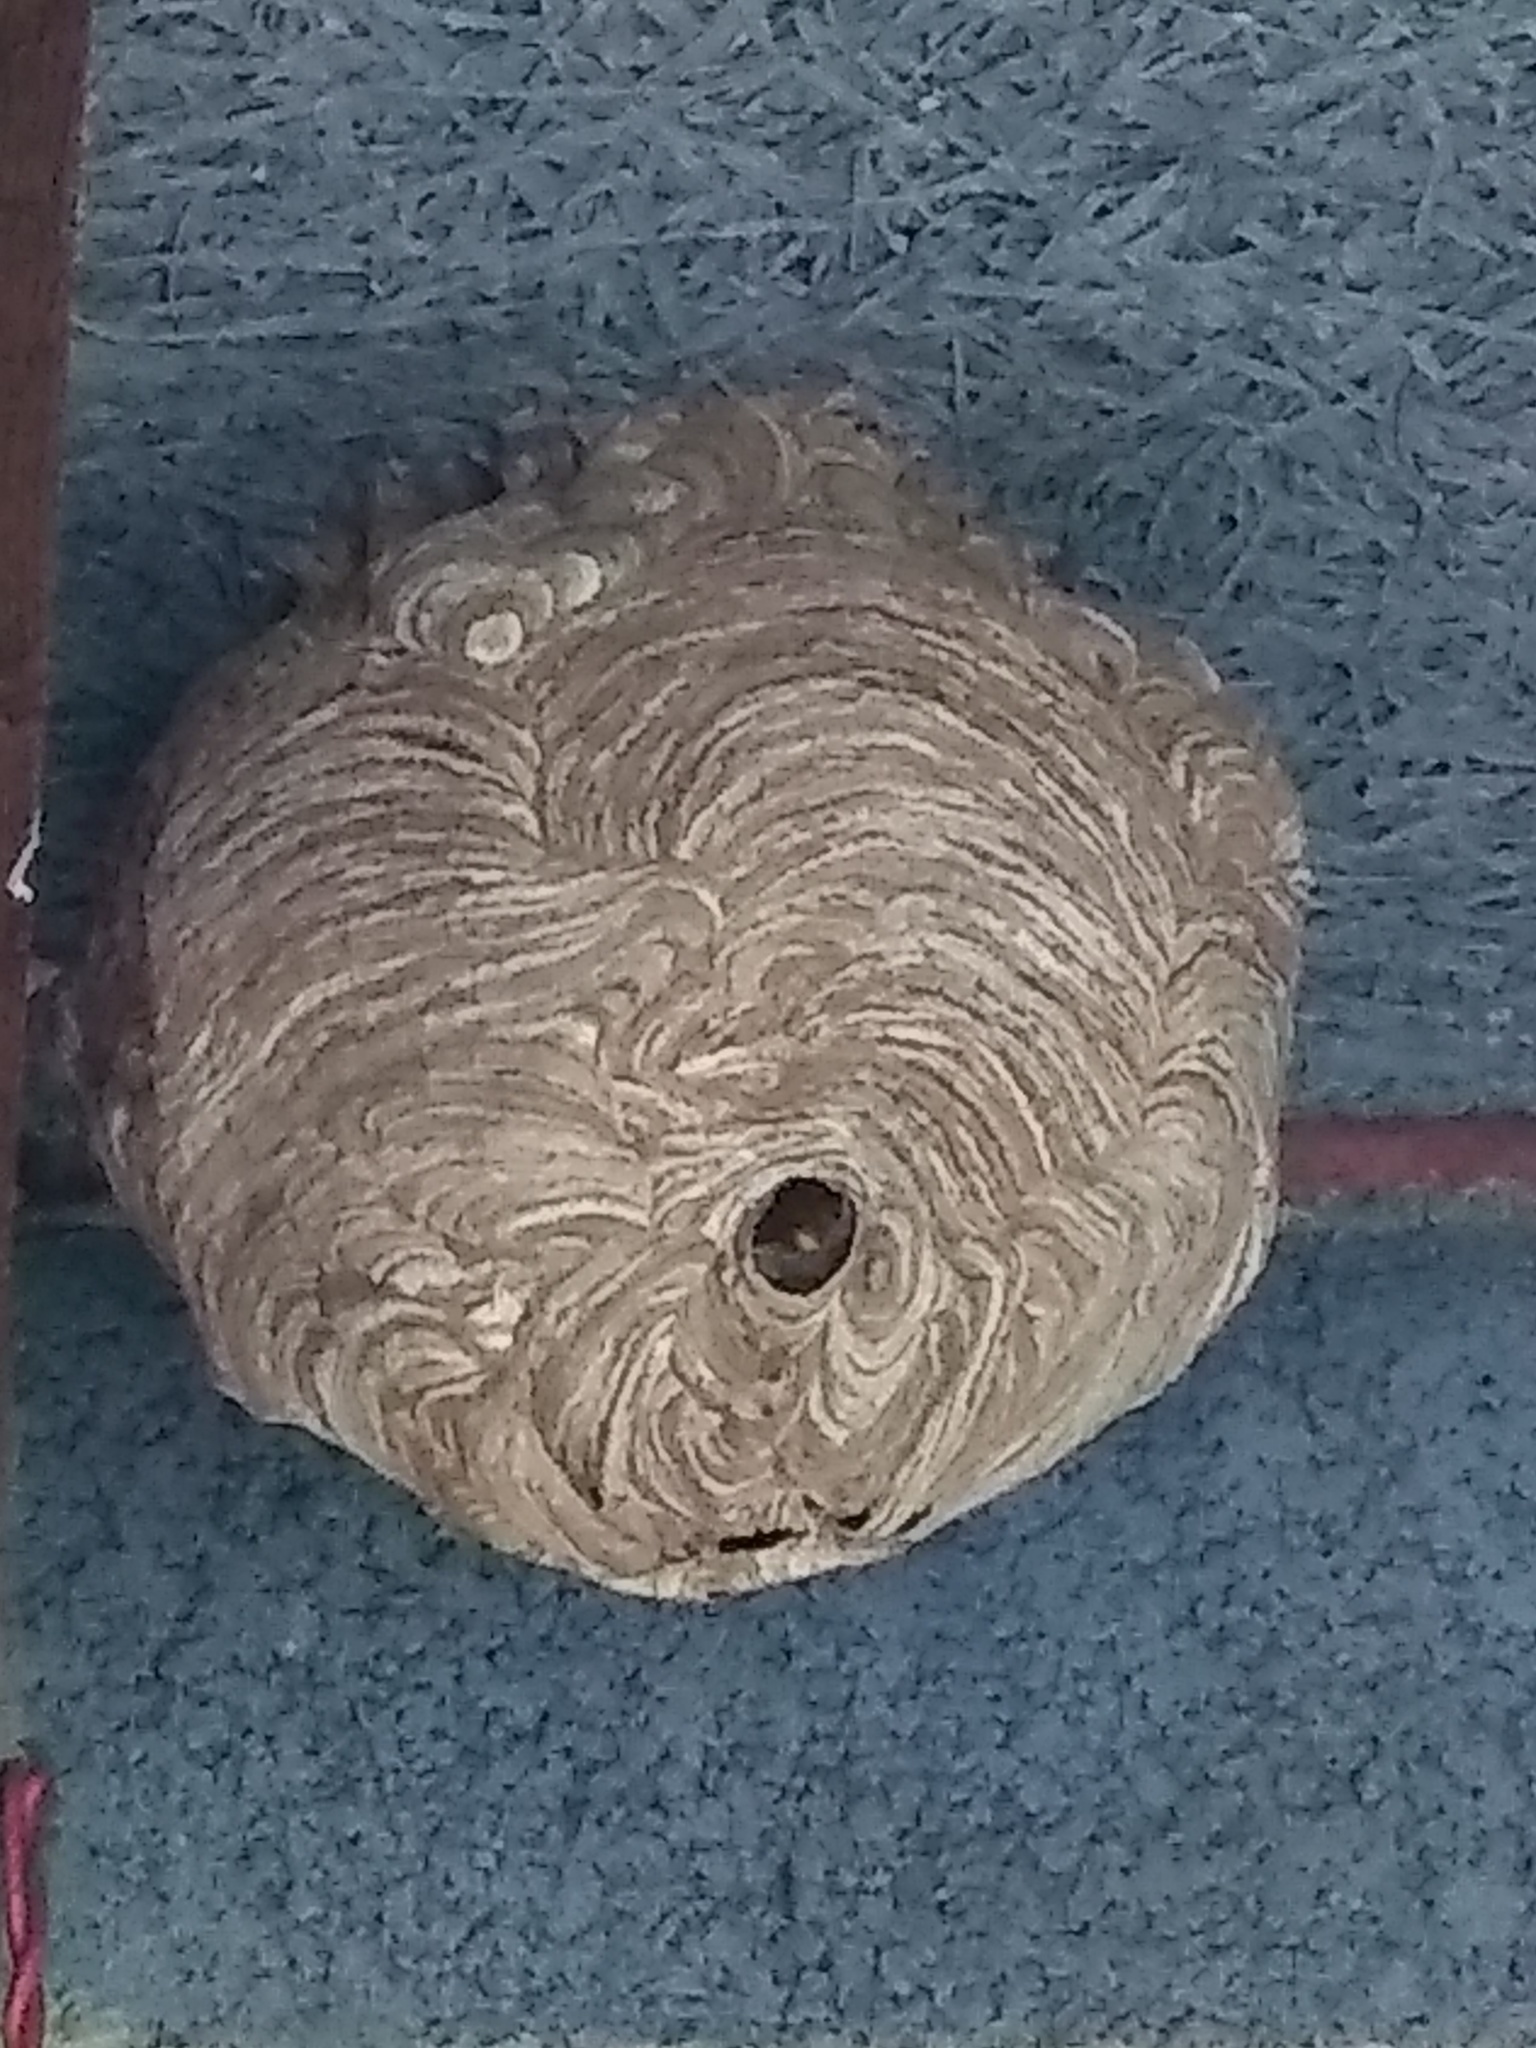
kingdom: Animalia
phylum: Arthropoda
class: Insecta
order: Hymenoptera
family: Vespidae
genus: Vespa
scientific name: Vespa velutina
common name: Asian hornet
